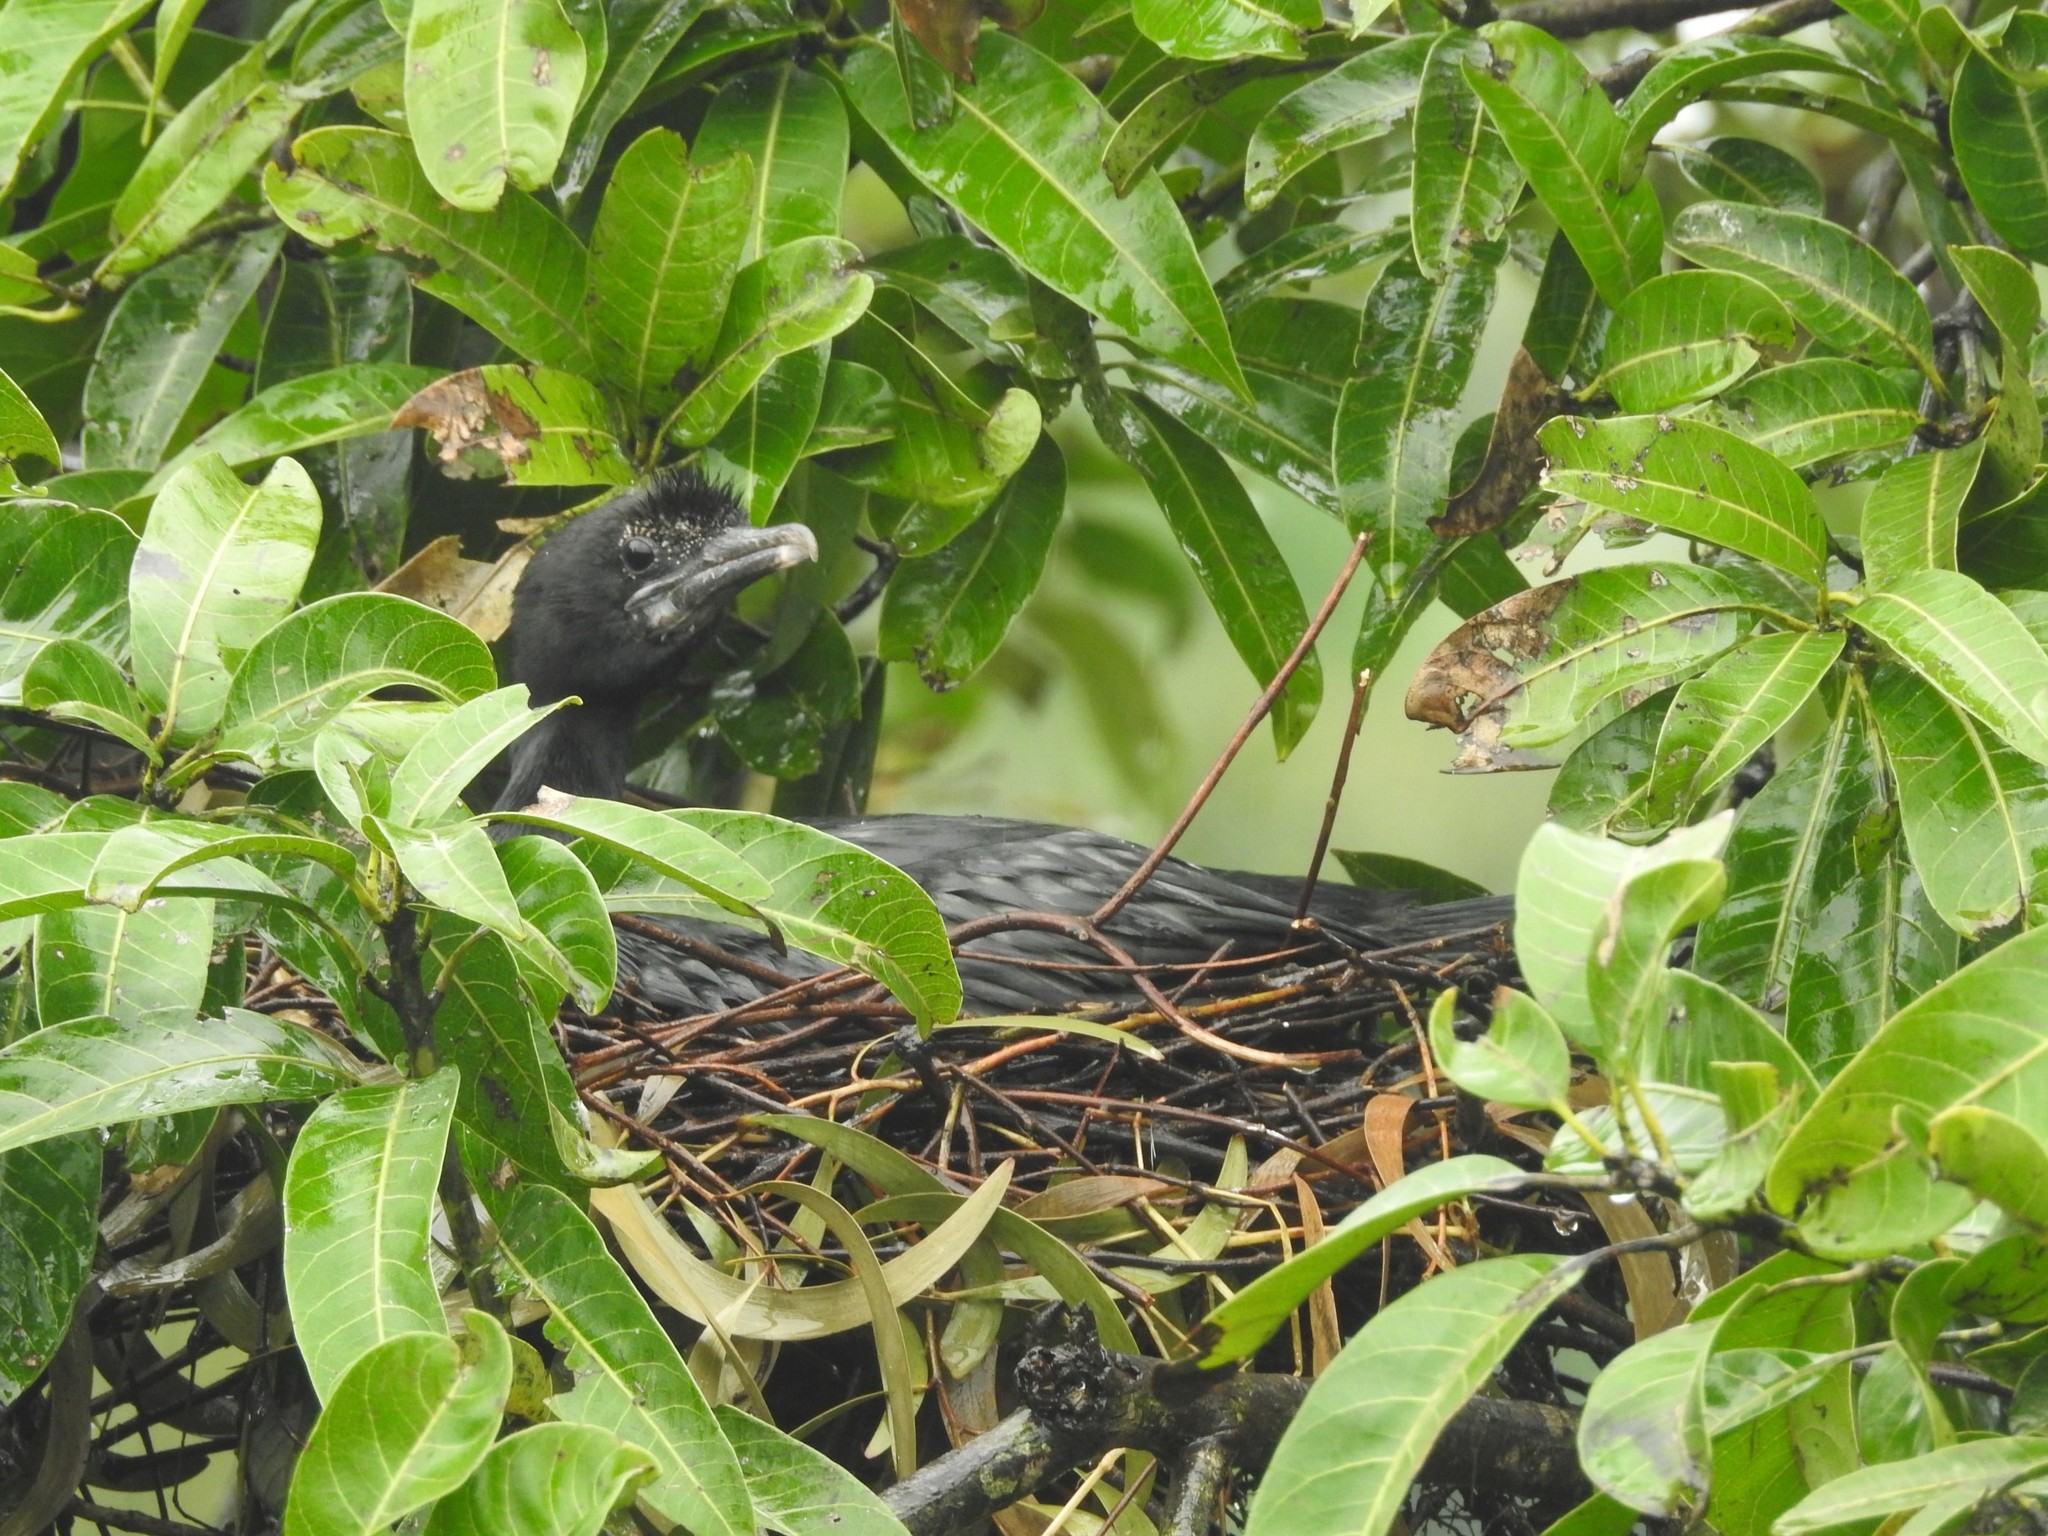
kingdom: Animalia
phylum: Chordata
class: Aves
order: Suliformes
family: Phalacrocoracidae
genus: Microcarbo
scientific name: Microcarbo niger
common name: Little cormorant
